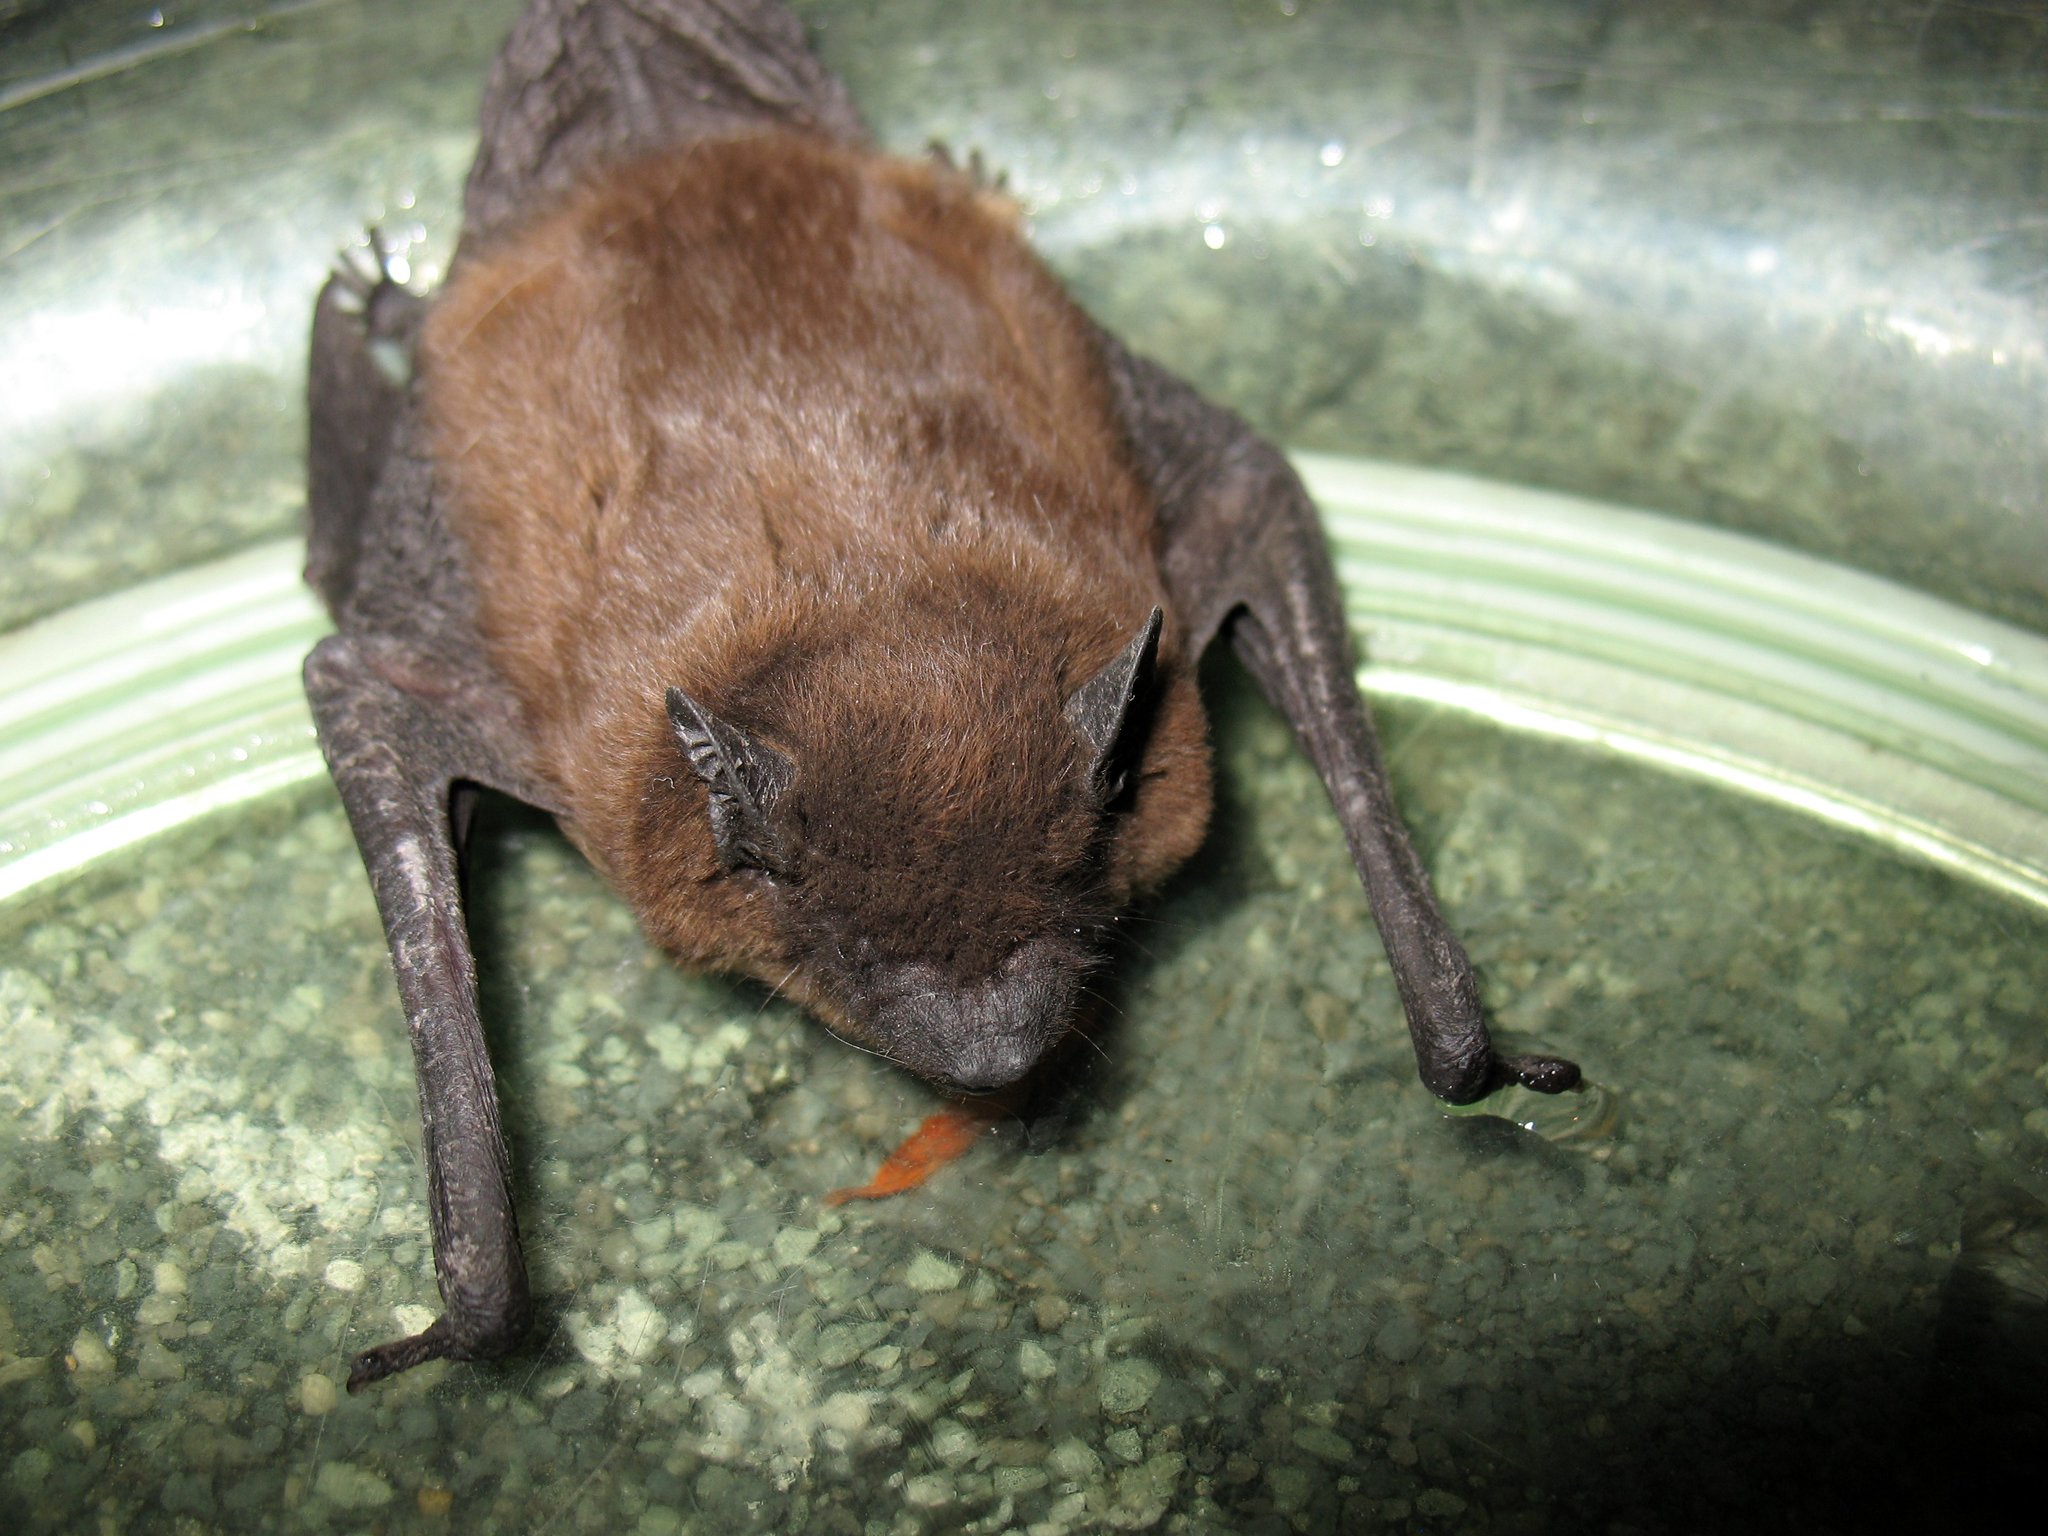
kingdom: Animalia
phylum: Chordata
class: Mammalia
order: Chiroptera
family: Vespertilionidae
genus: Eptesicus
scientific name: Eptesicus fuscus
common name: Big brown bat
